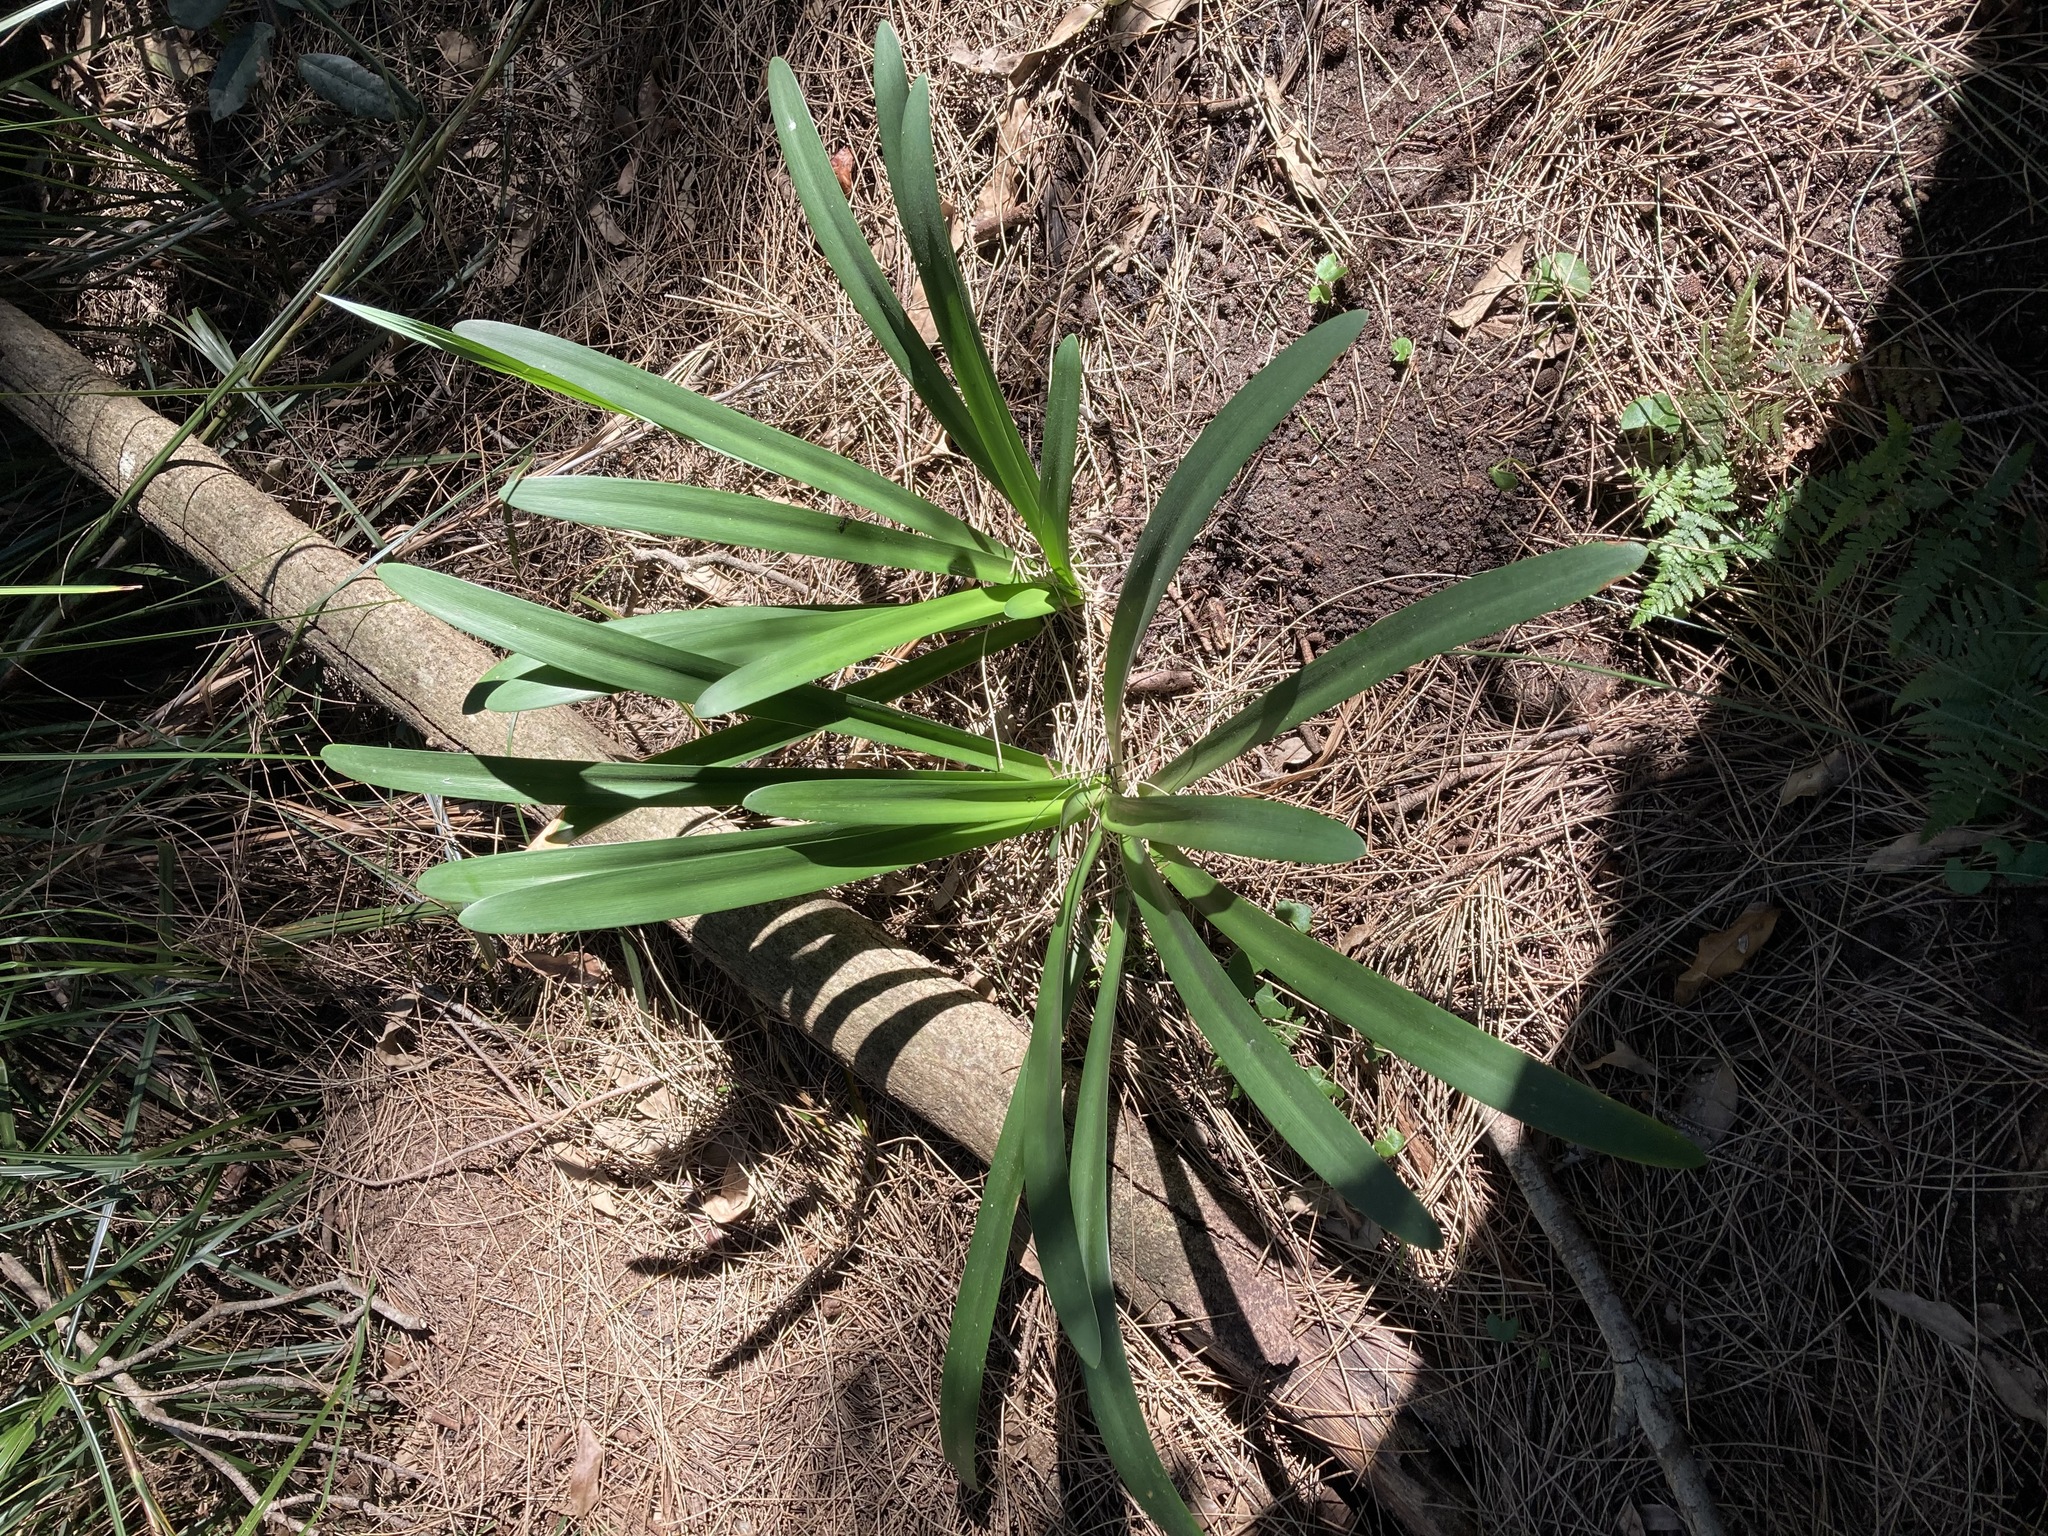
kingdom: Plantae
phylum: Tracheophyta
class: Liliopsida
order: Asparagales
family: Amaryllidaceae
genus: Agapanthus
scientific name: Agapanthus praecox
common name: African-lily
